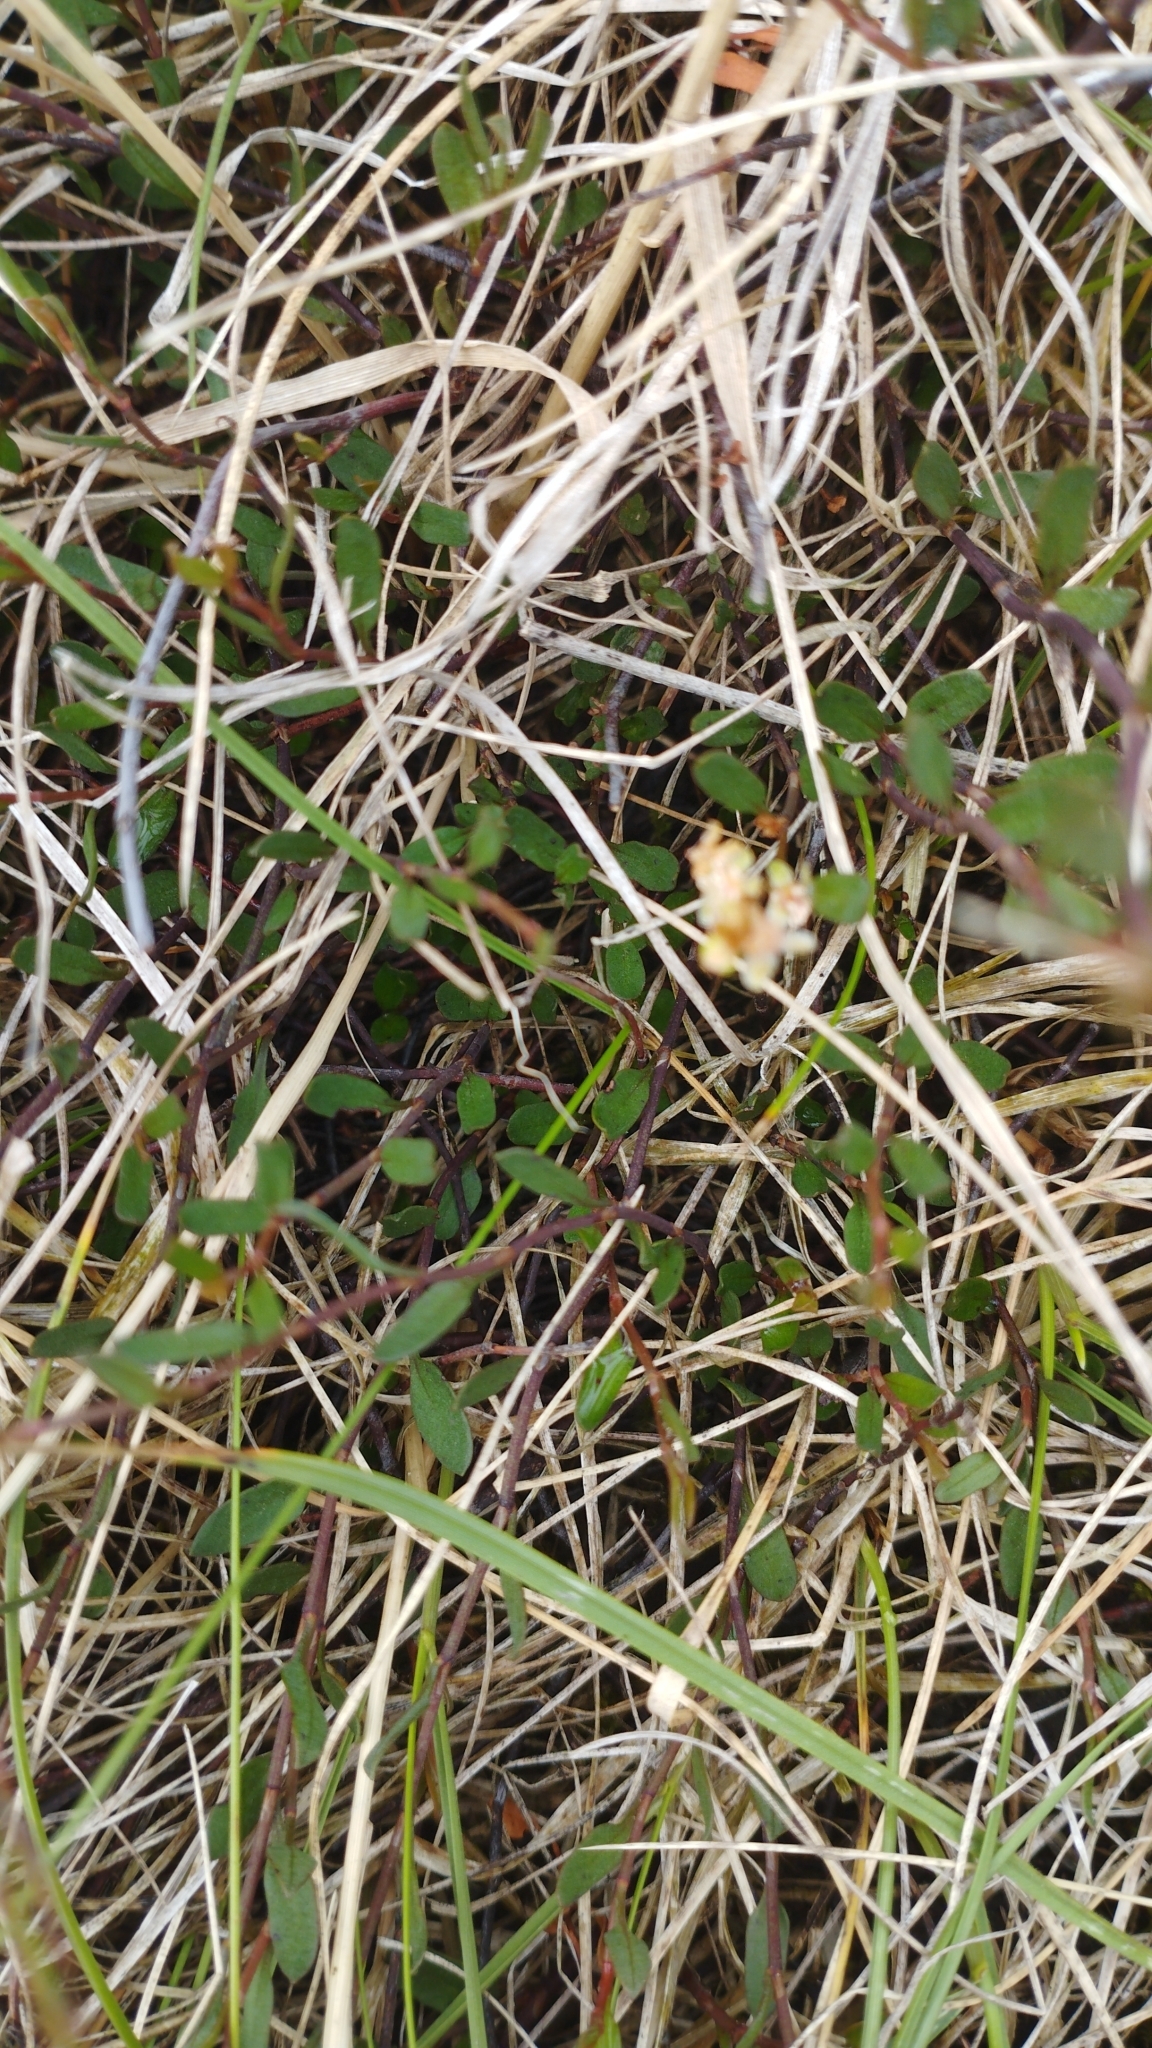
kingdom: Plantae
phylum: Tracheophyta
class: Magnoliopsida
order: Caryophyllales
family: Polygonaceae
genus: Muehlenbeckia
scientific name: Muehlenbeckia axillaris
